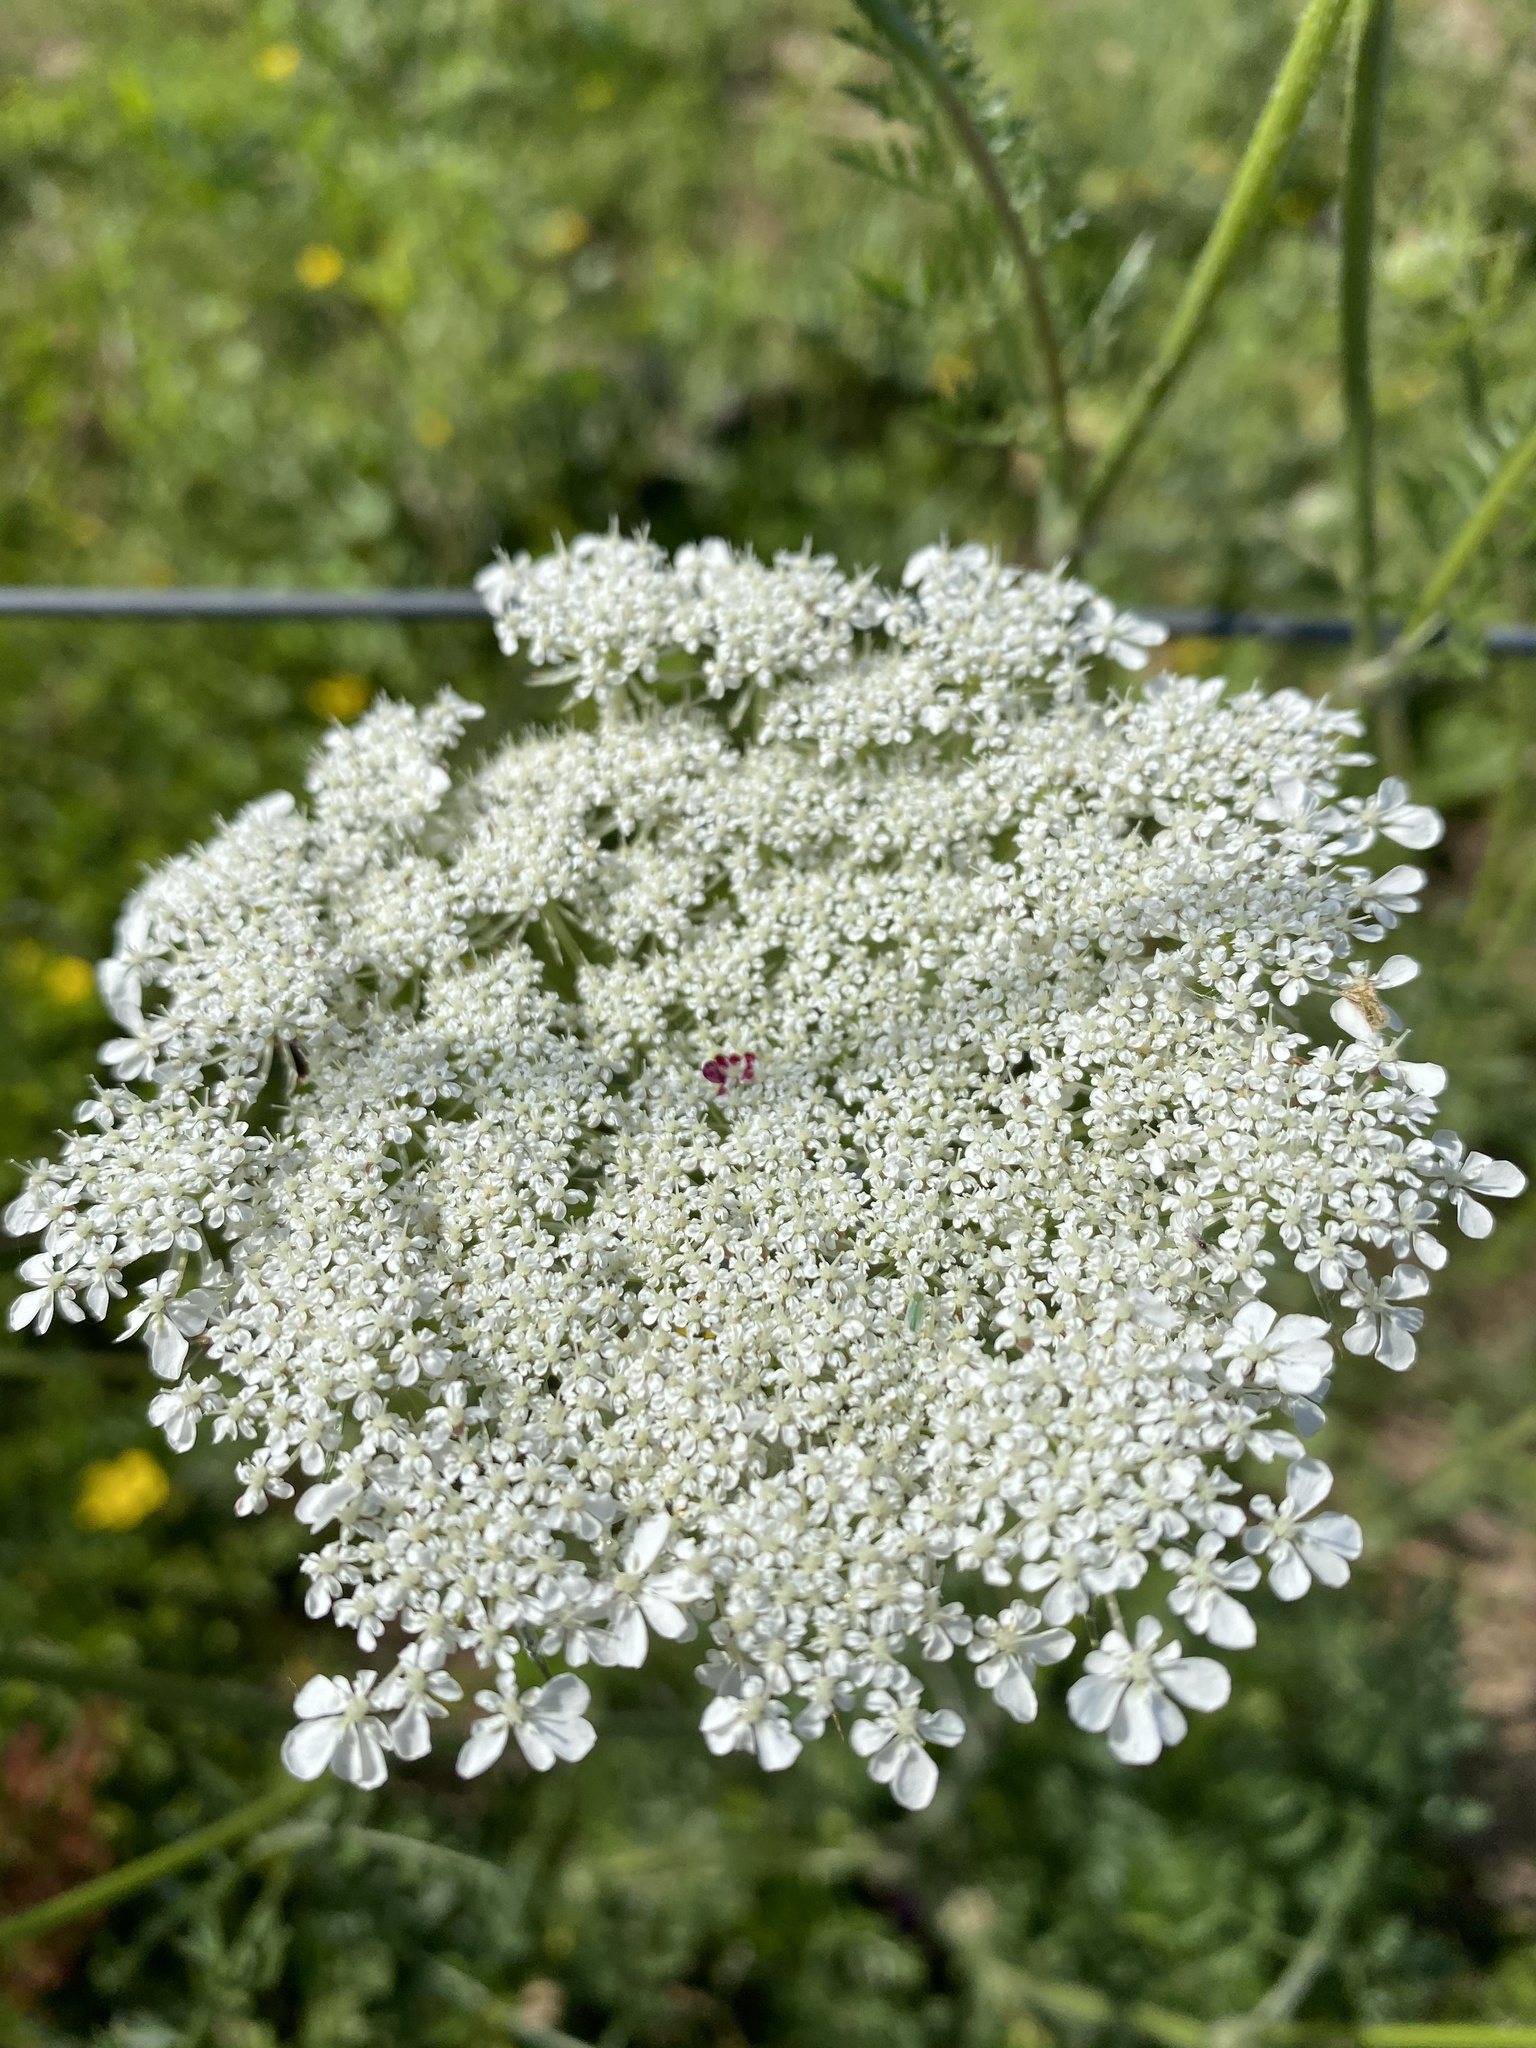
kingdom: Plantae
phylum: Tracheophyta
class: Magnoliopsida
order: Apiales
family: Apiaceae
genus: Daucus
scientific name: Daucus carota
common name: Wild carrot
